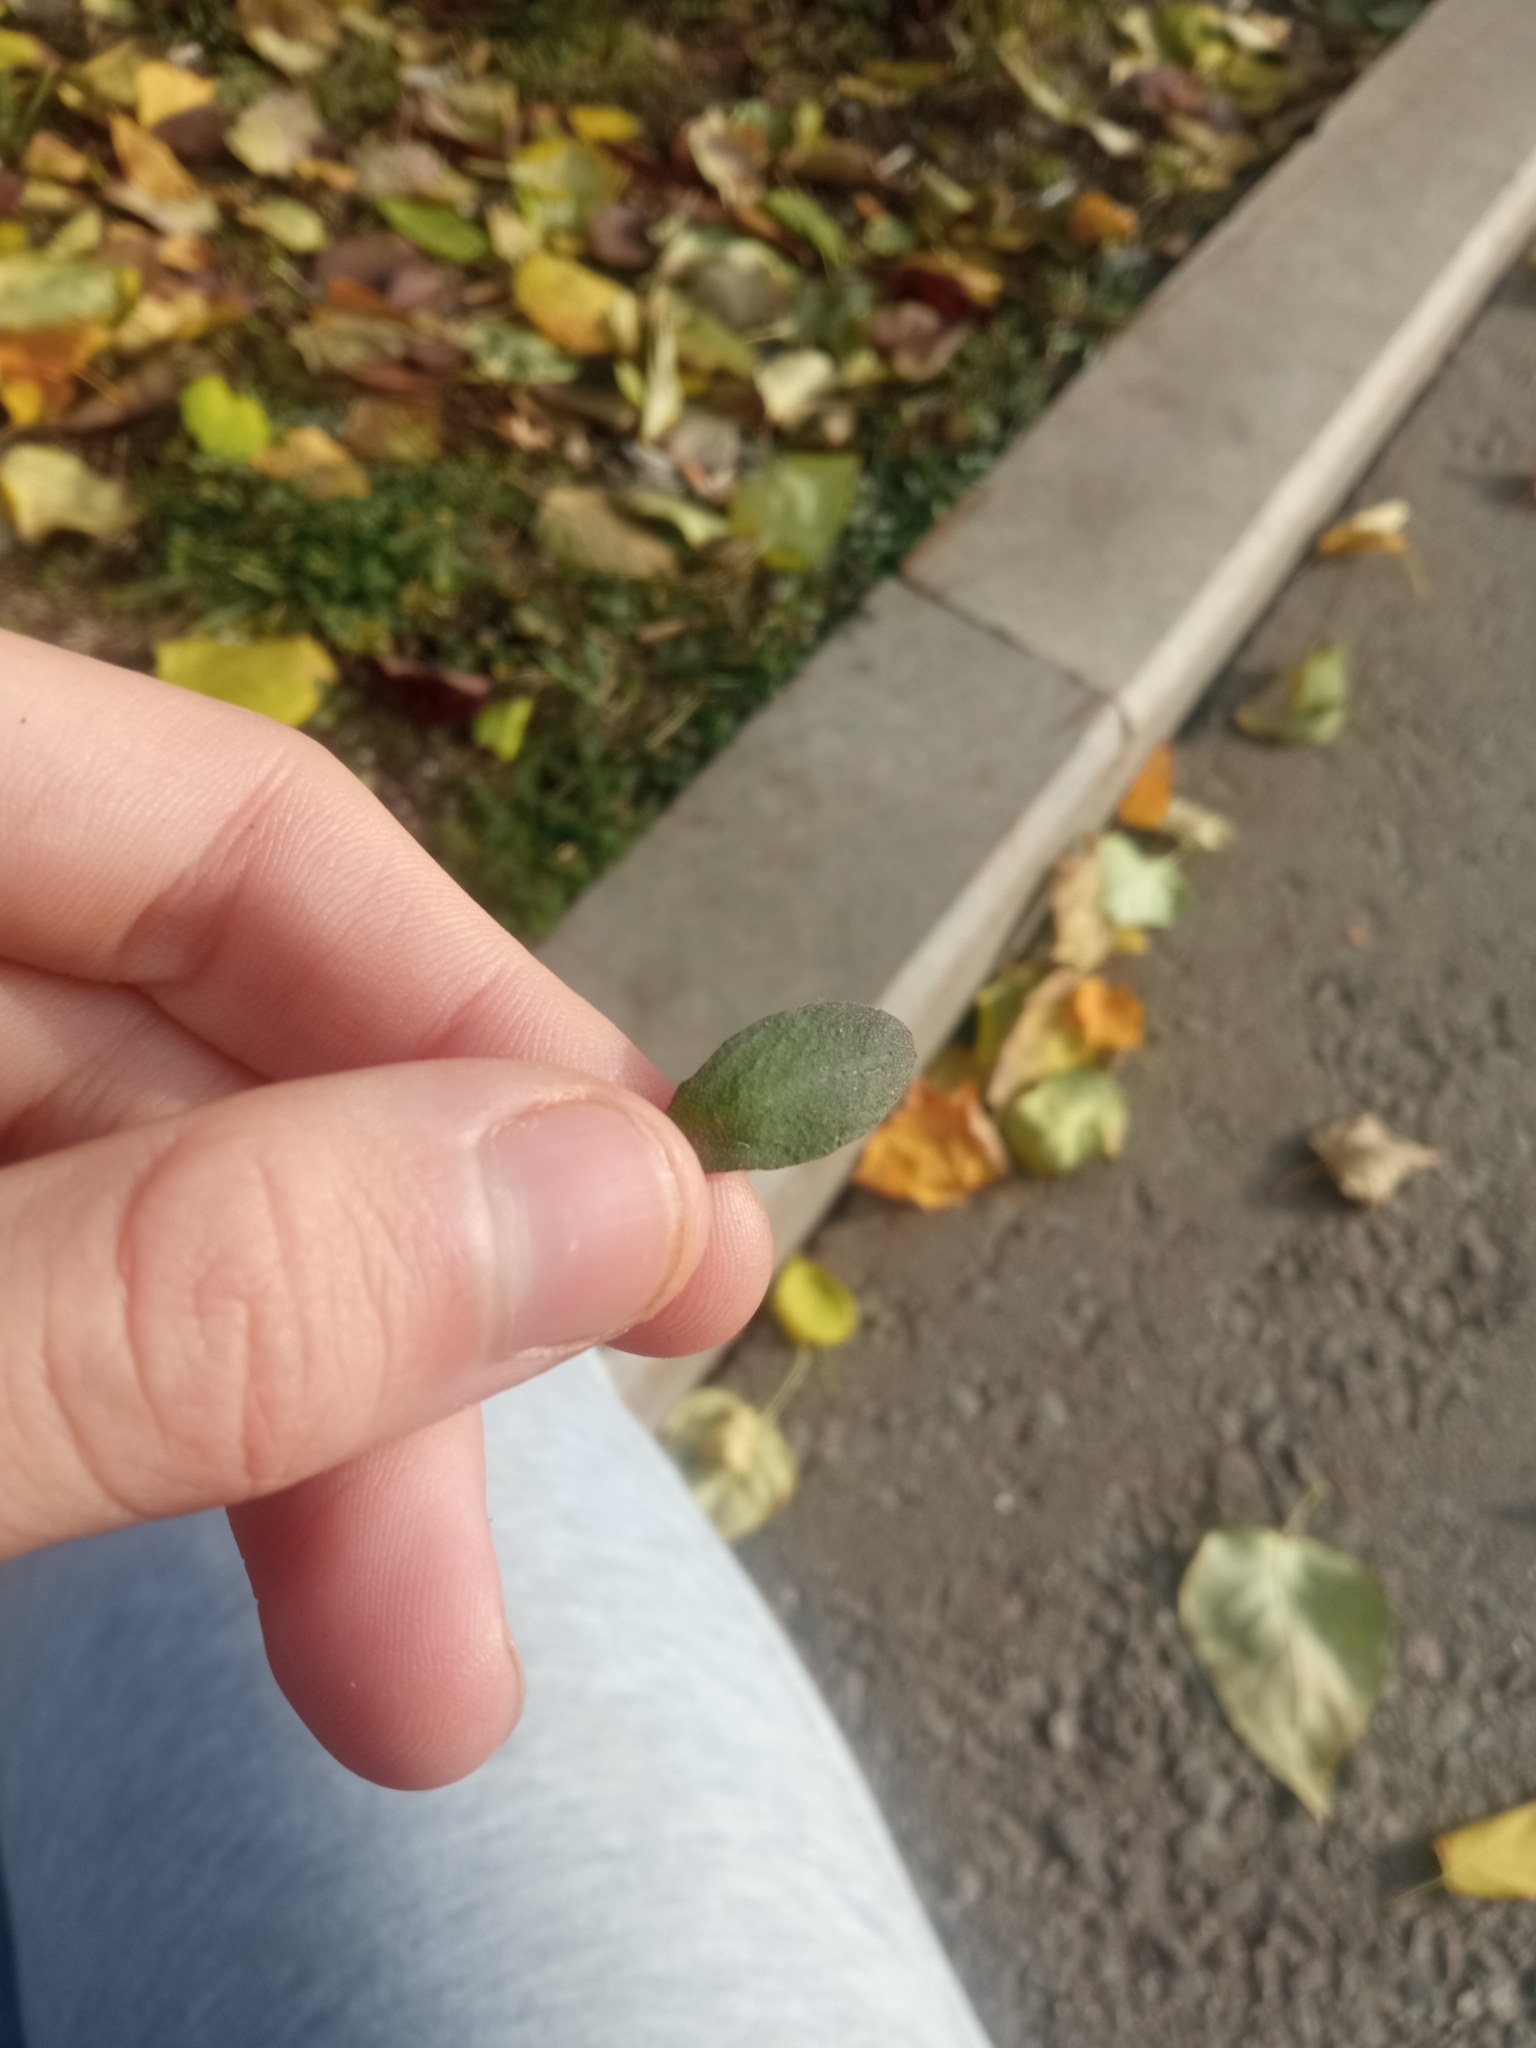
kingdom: Plantae
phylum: Tracheophyta
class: Magnoliopsida
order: Brassicales
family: Brassicaceae
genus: Berteroa
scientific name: Berteroa incana
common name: Hoary alison
